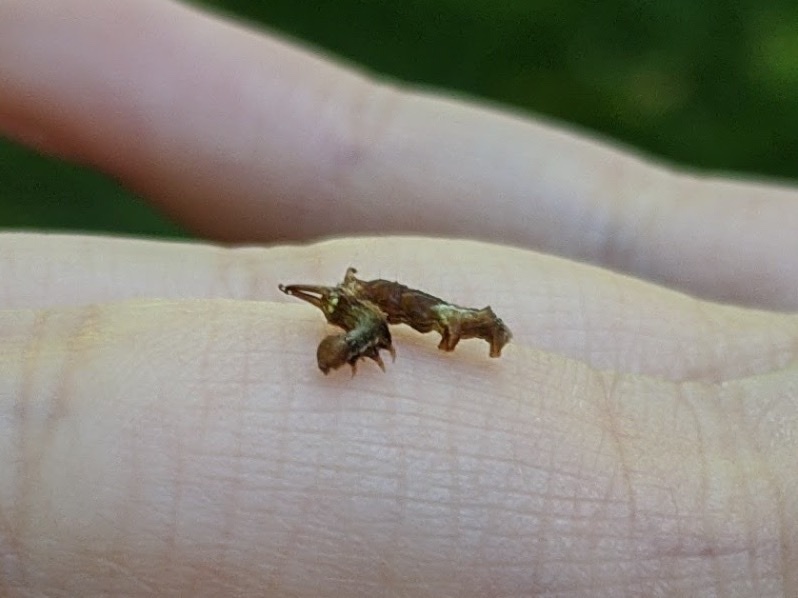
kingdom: Animalia
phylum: Arthropoda
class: Insecta
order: Lepidoptera
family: Geometridae
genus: Nematocampa
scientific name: Nematocampa resistaria
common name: Horned spanworm moth
